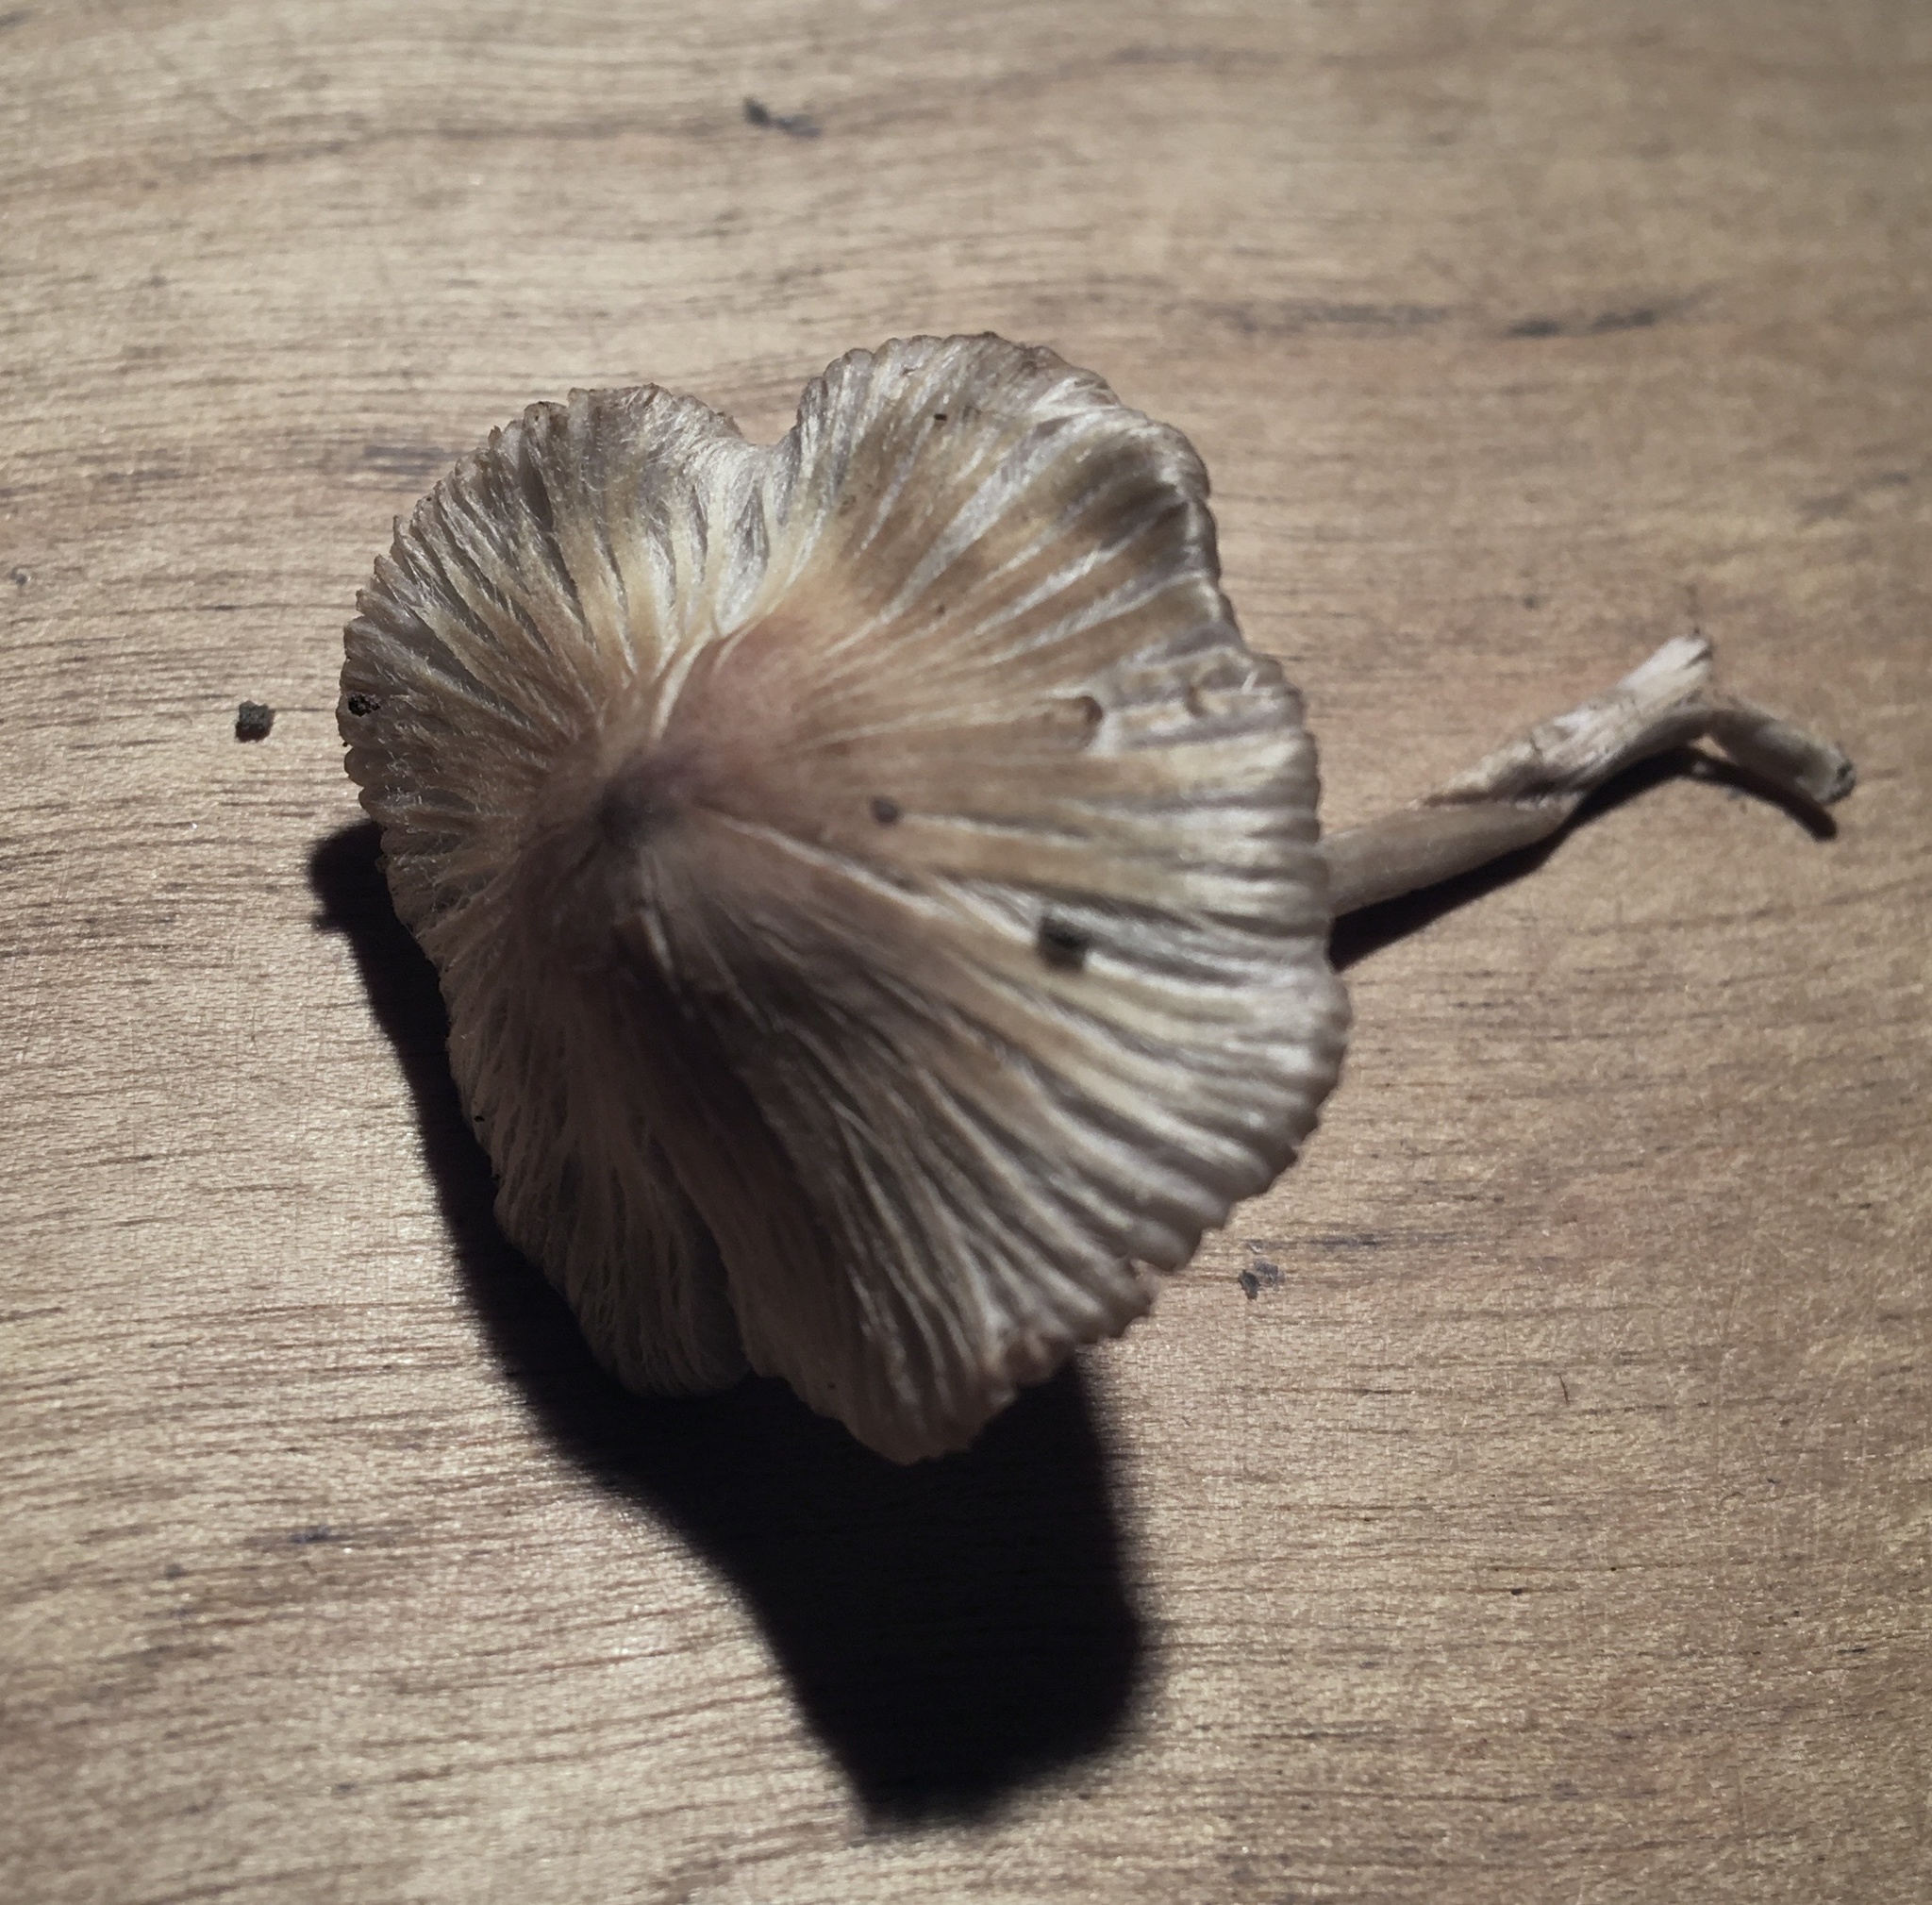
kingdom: Fungi
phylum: Basidiomycota
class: Agaricomycetes
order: Agaricales
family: Inocybaceae
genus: Pseudosperma
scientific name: Pseudosperma friabile
